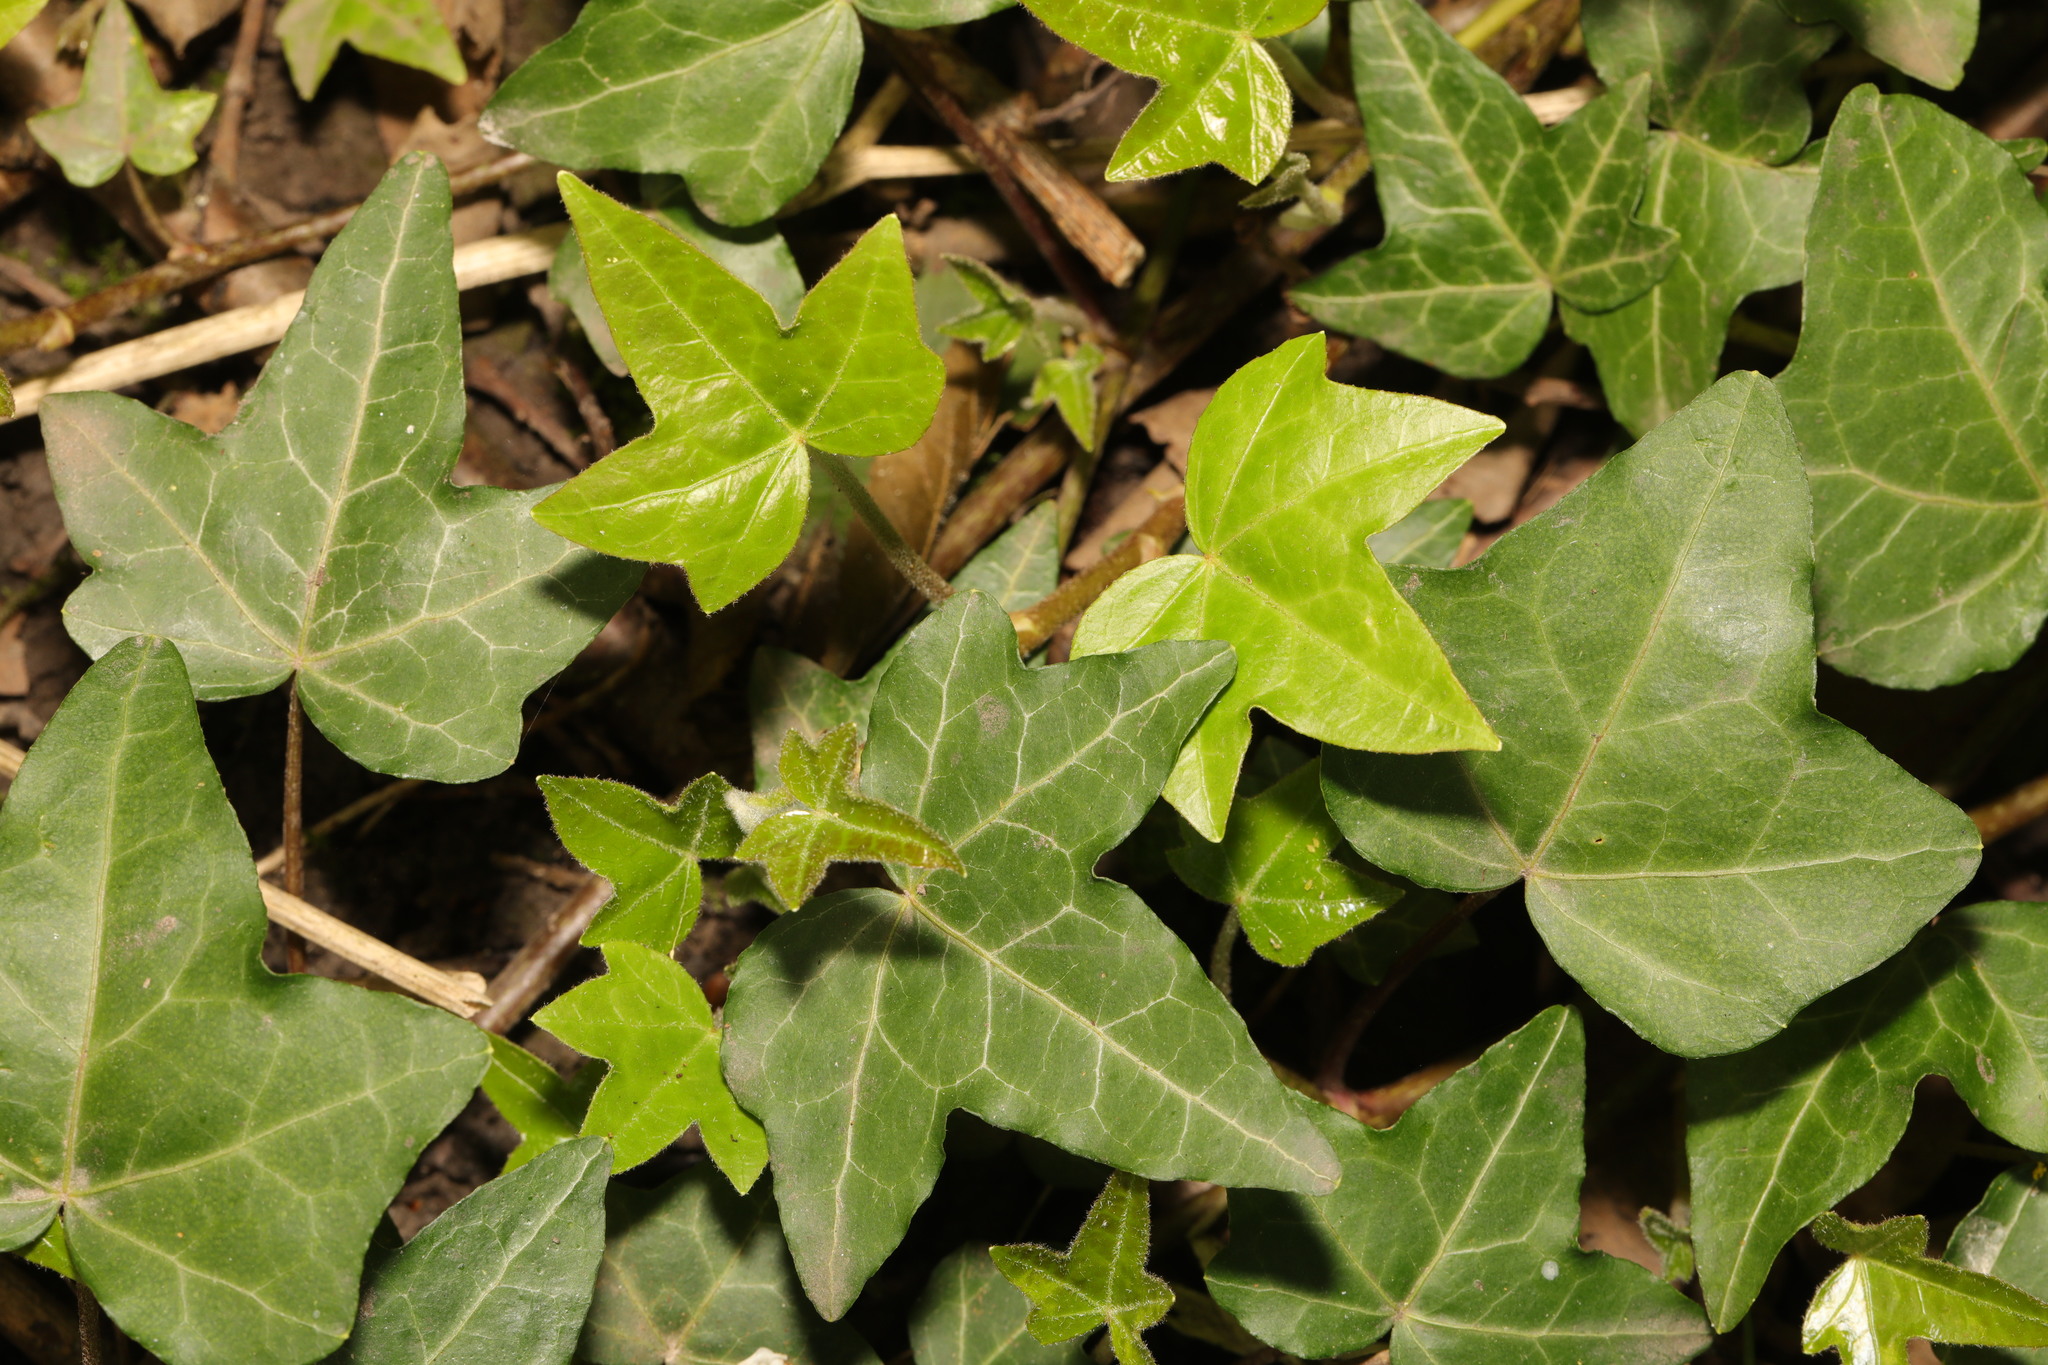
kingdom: Plantae
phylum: Tracheophyta
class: Magnoliopsida
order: Apiales
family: Araliaceae
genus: Hedera
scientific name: Hedera helix
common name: Ivy
